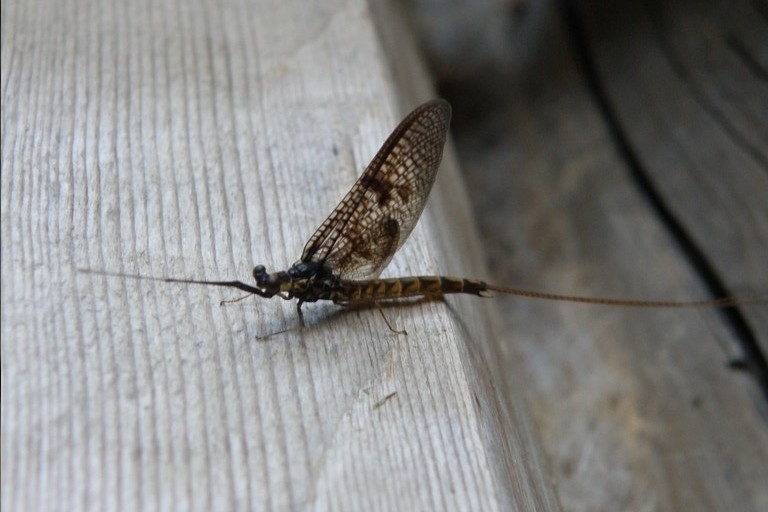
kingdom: Animalia
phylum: Arthropoda
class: Insecta
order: Ephemeroptera
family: Ephemeridae
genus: Ephemera
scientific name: Ephemera vulgata
